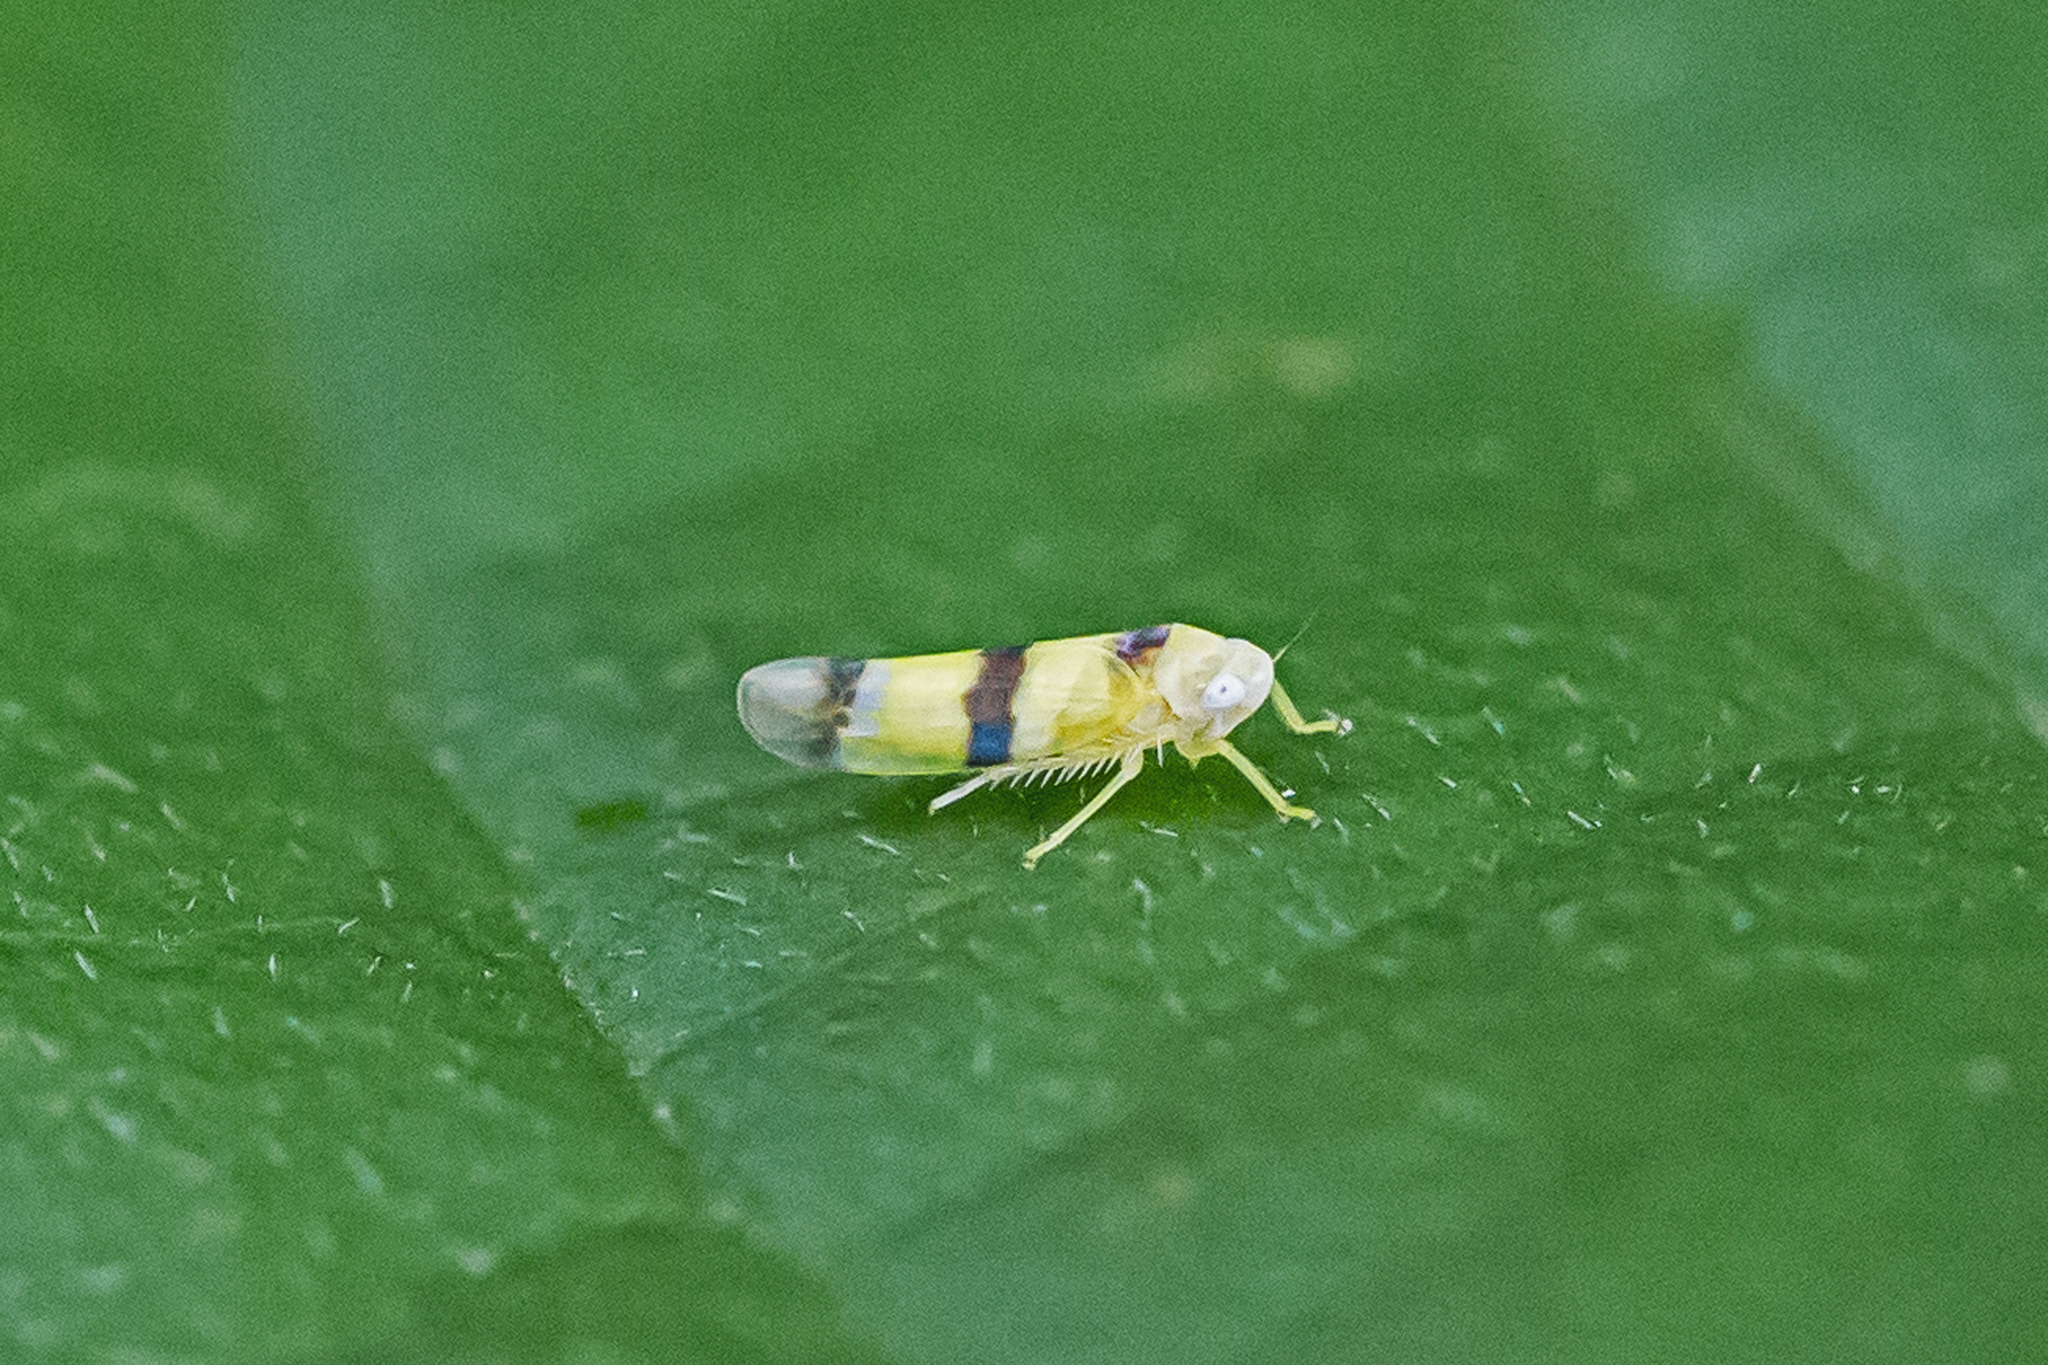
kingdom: Animalia
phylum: Arthropoda
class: Insecta
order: Hemiptera
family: Cicadellidae
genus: Empoa
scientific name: Empoa gillettei
